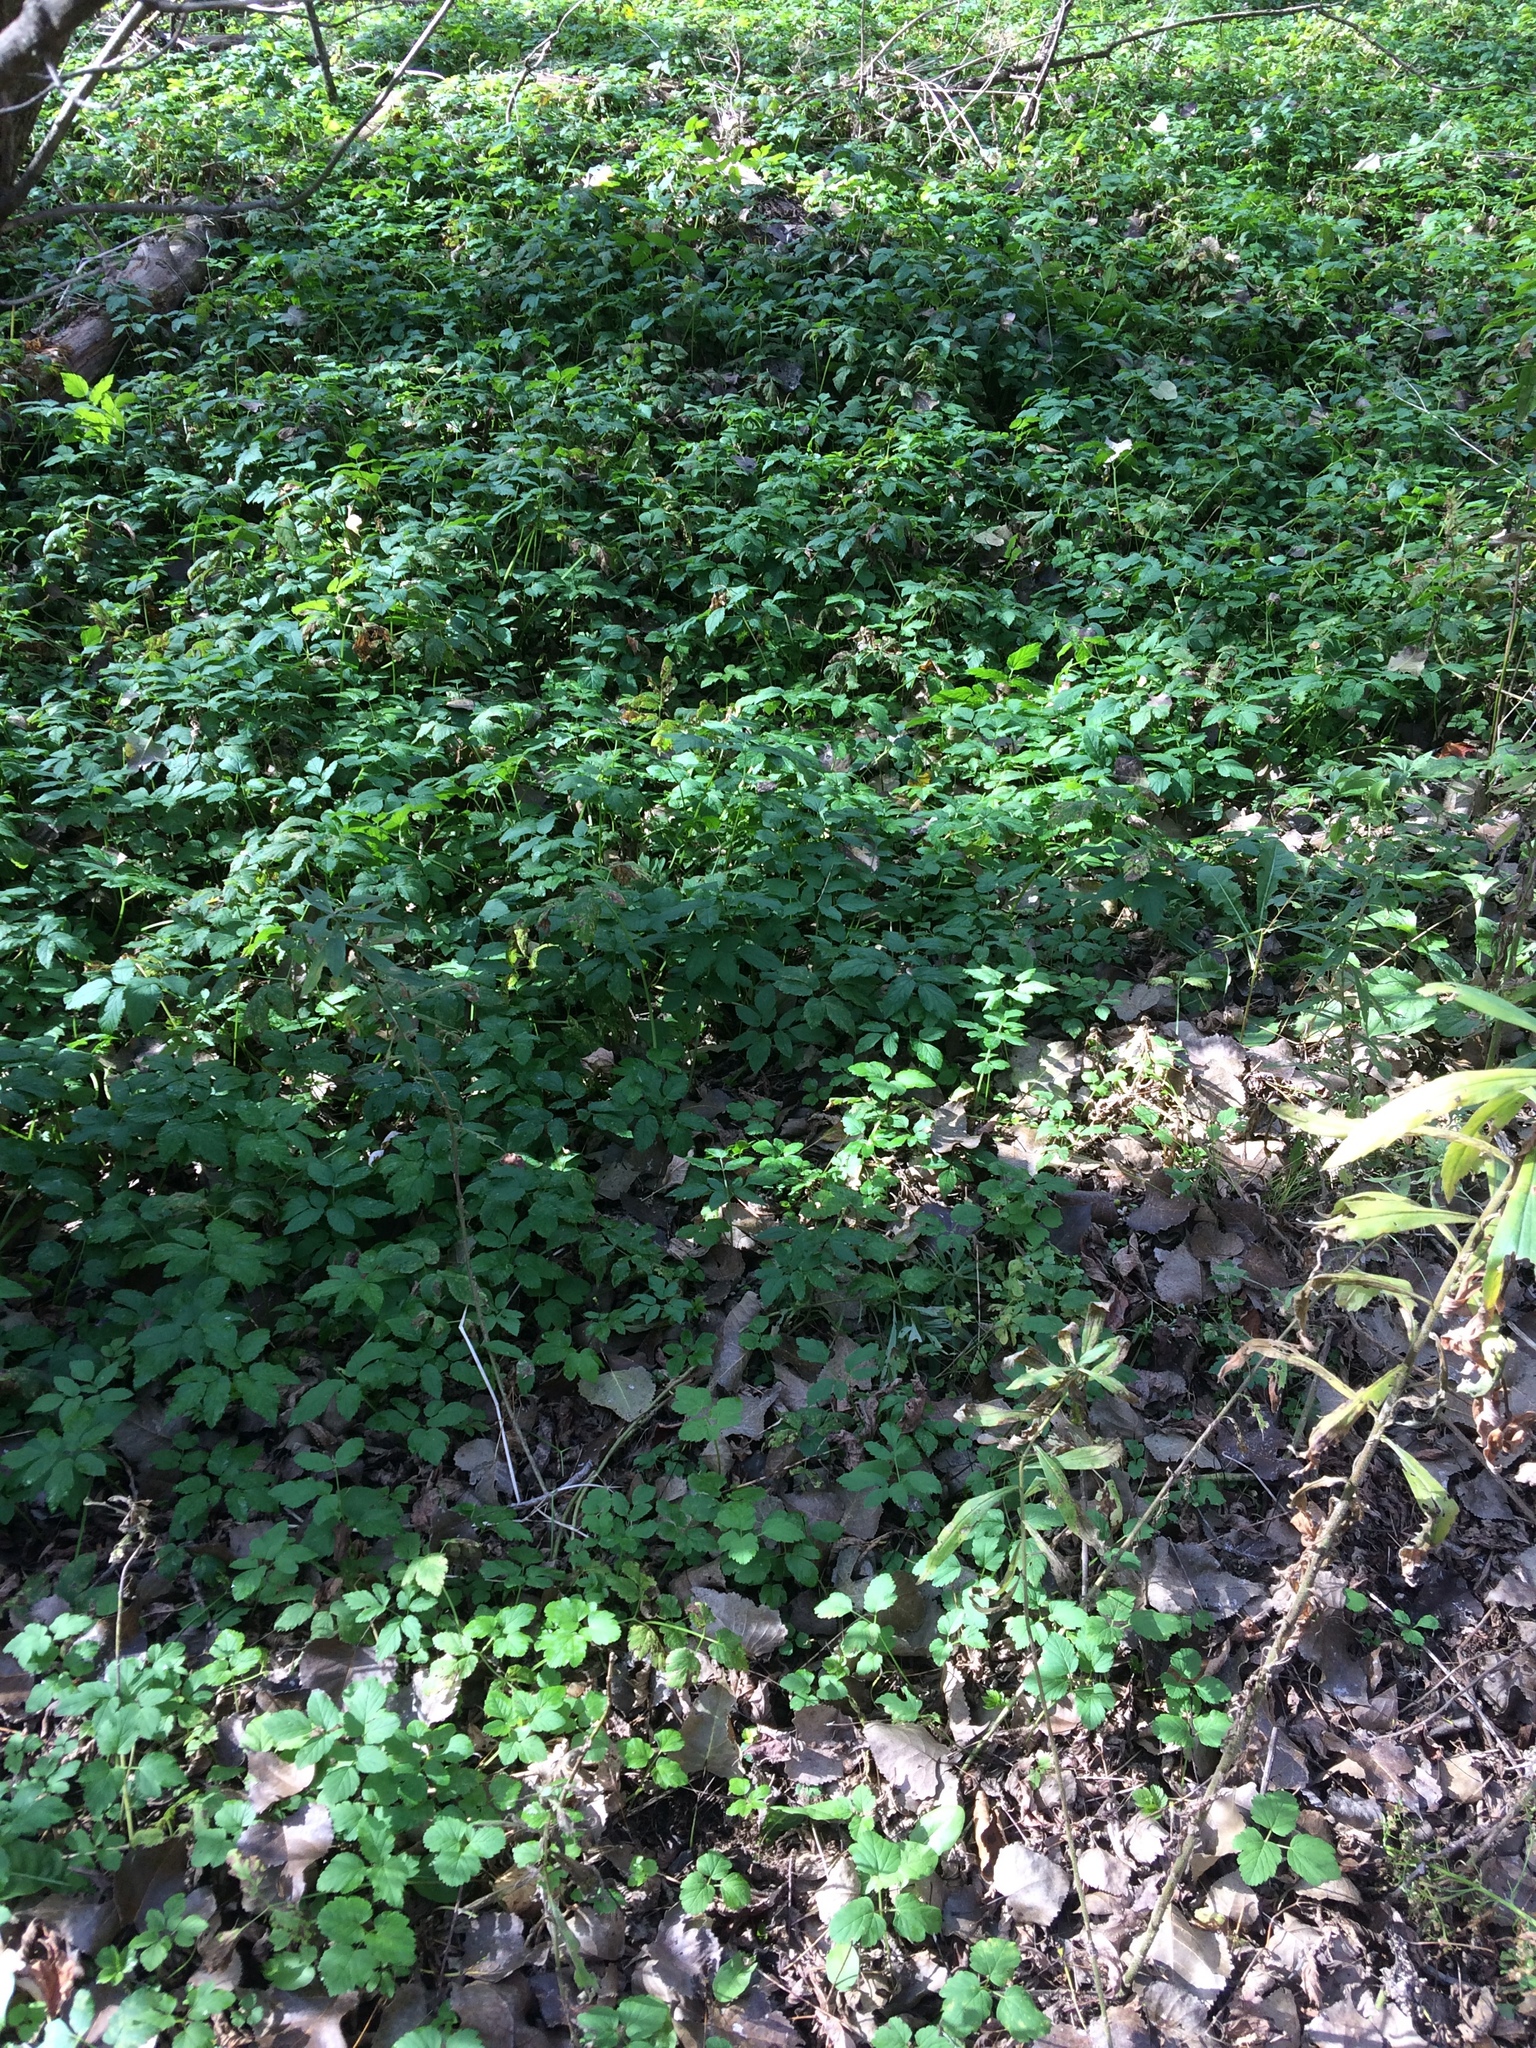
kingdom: Plantae
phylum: Tracheophyta
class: Magnoliopsida
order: Apiales
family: Apiaceae
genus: Aegopodium
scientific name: Aegopodium podagraria
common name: Ground-elder
